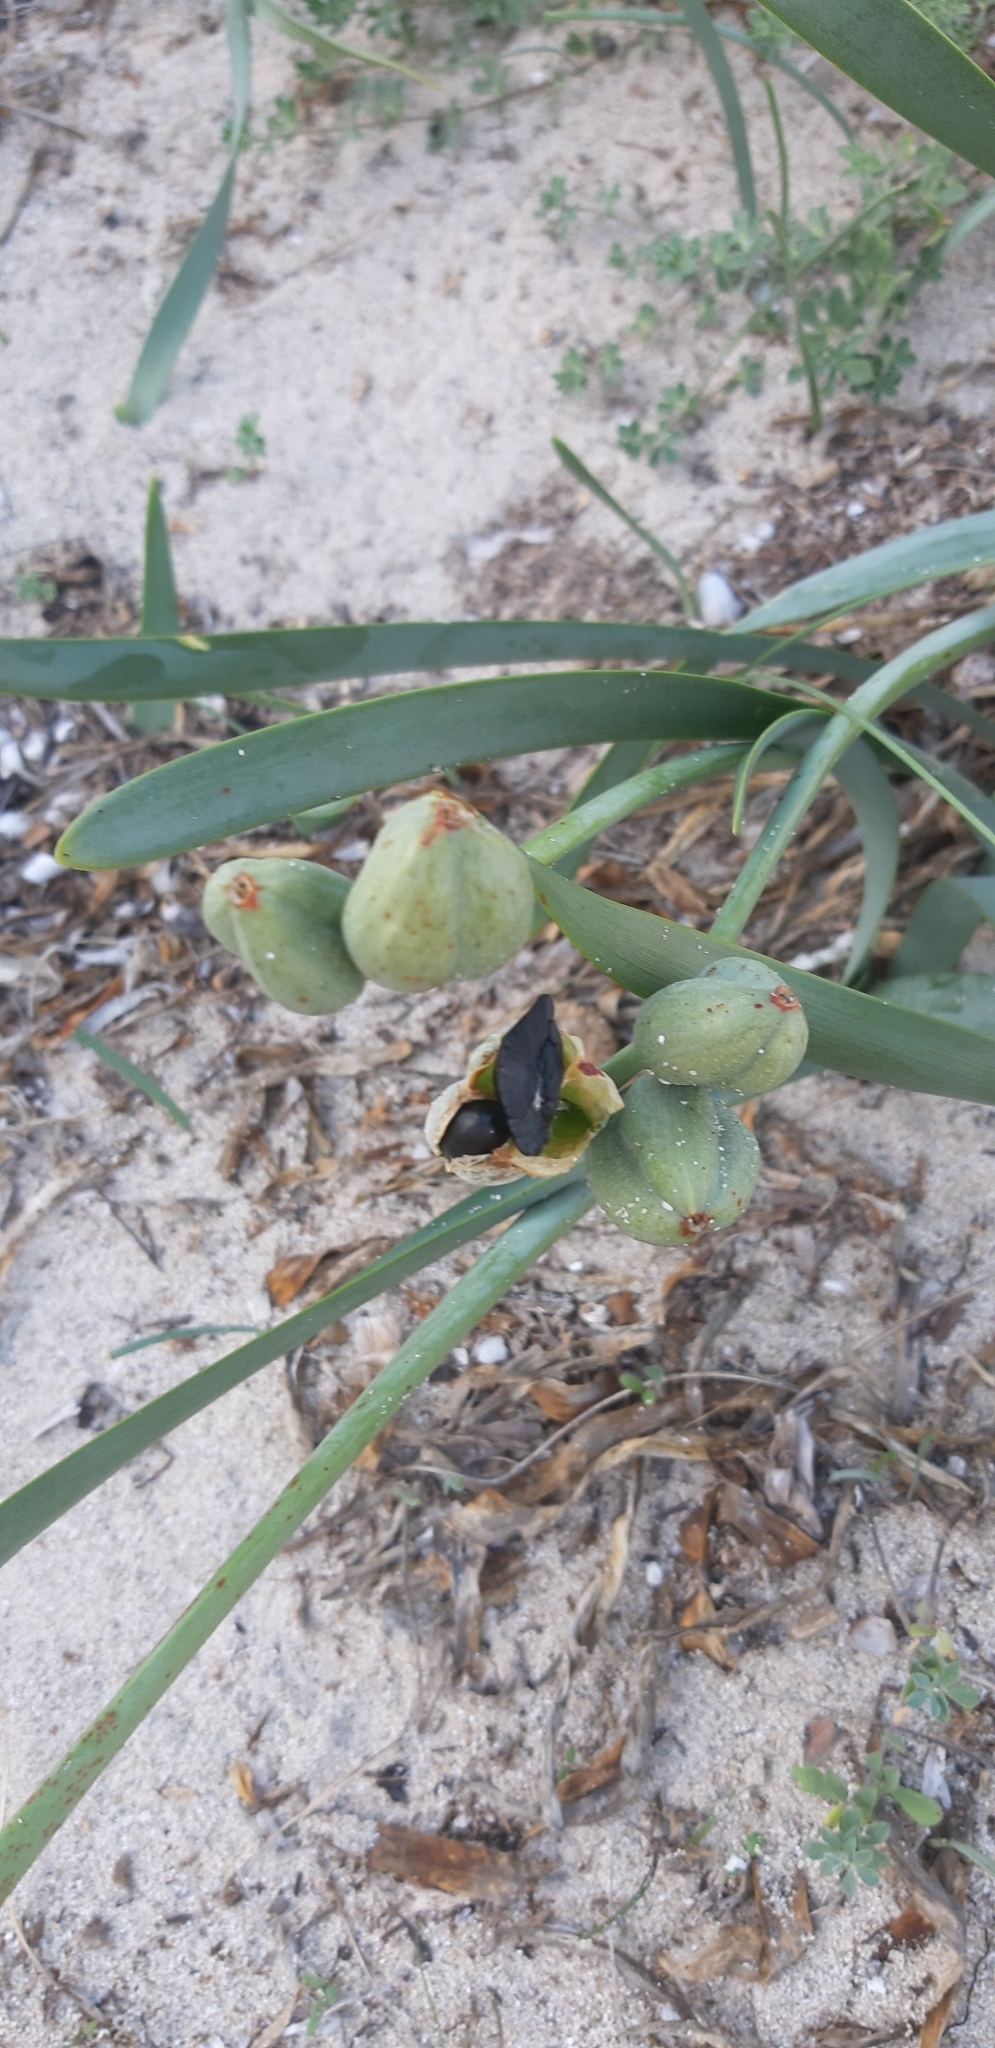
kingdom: Plantae
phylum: Tracheophyta
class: Liliopsida
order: Asparagales
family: Amaryllidaceae
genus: Pancratium
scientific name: Pancratium maritimum
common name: Sea-daffodil
